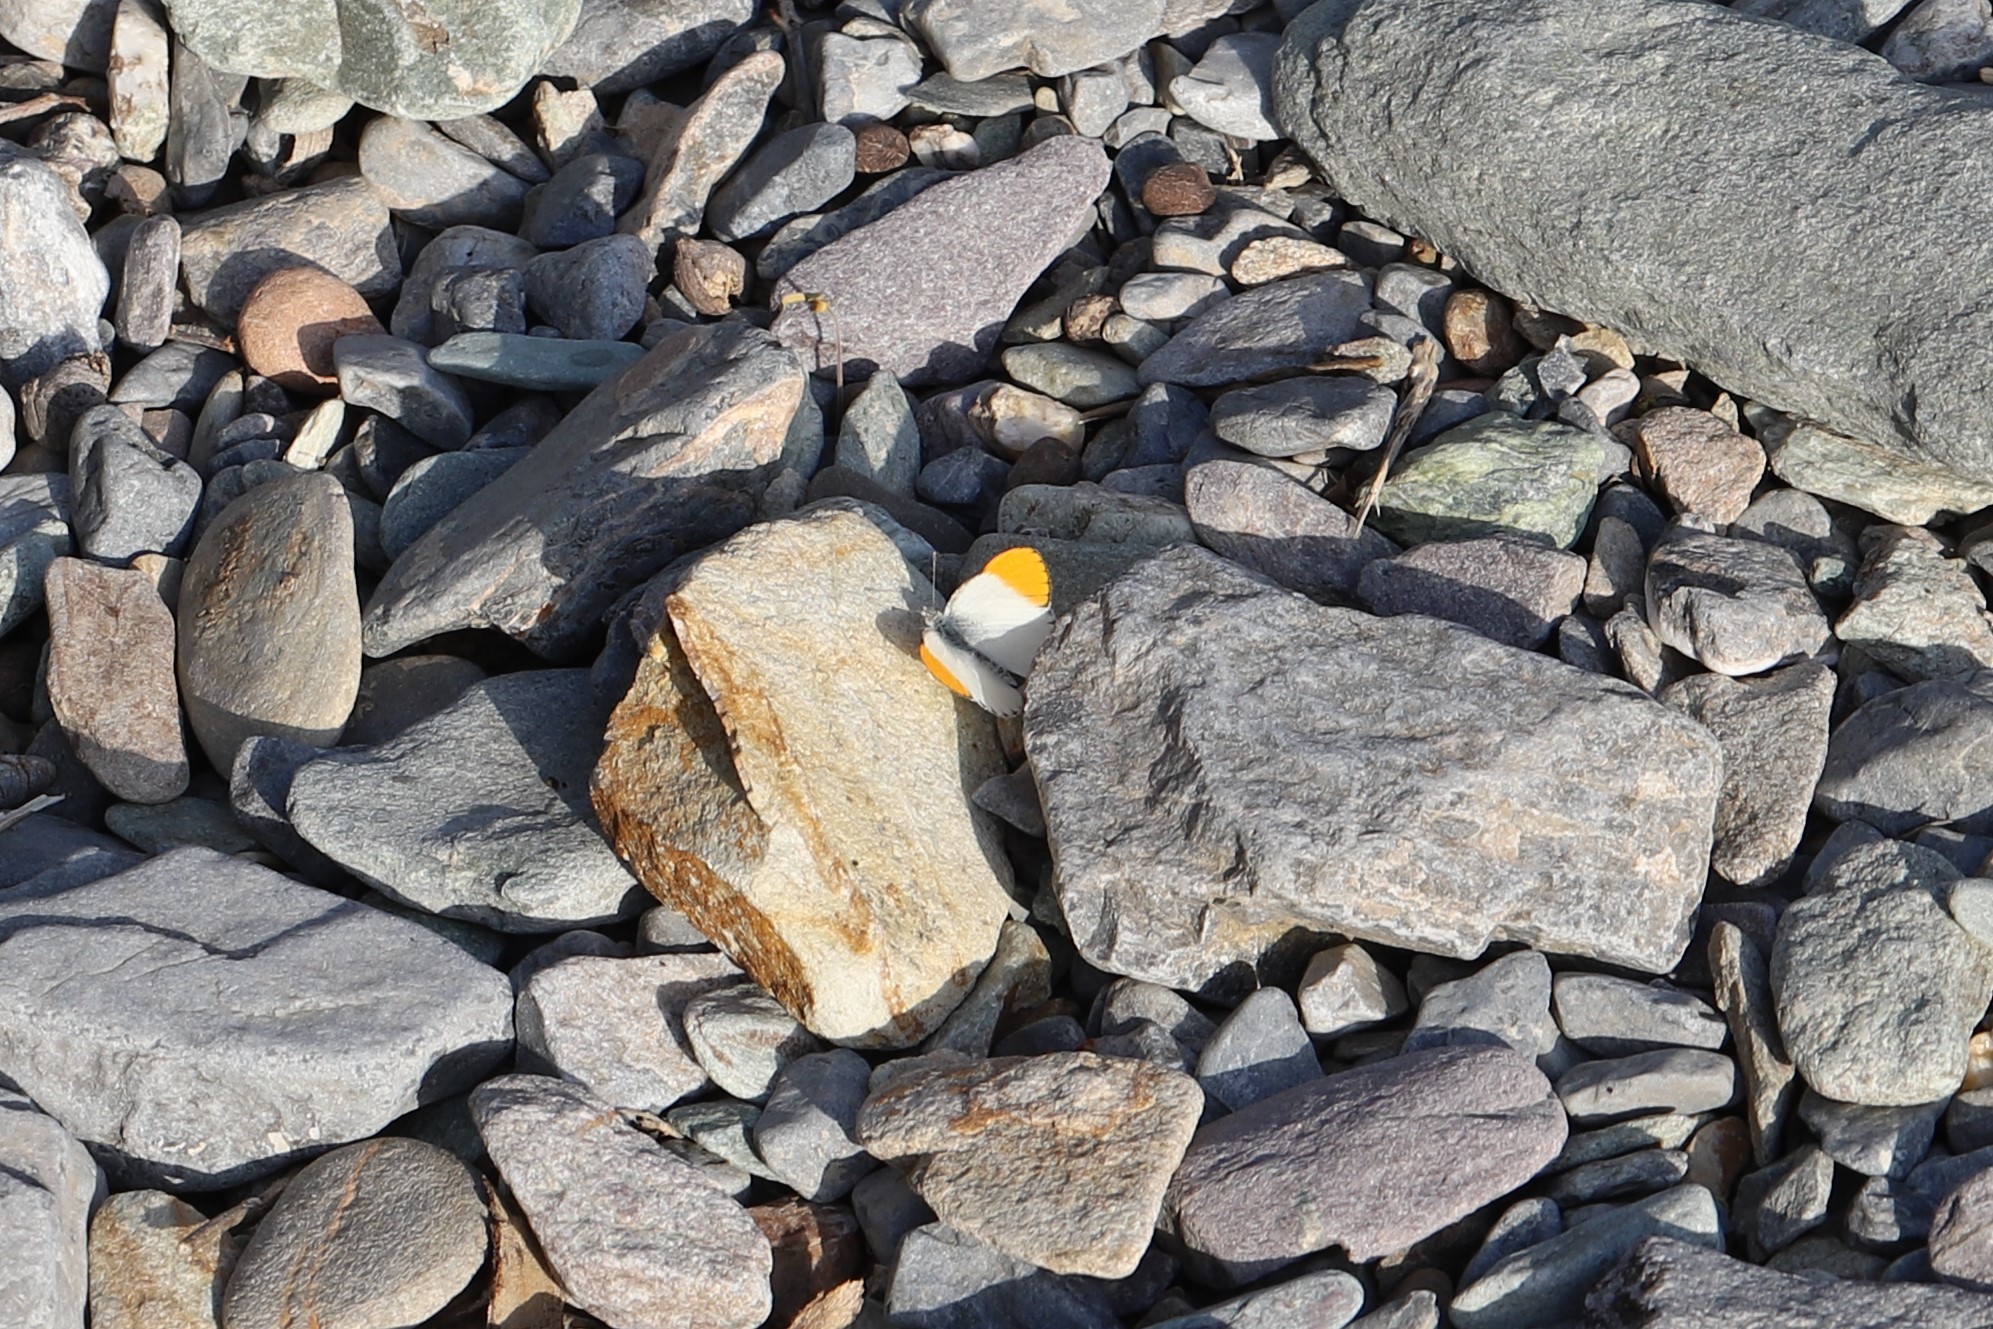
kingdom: Animalia
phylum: Arthropoda
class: Insecta
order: Lepidoptera
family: Pieridae
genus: Colotis
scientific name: Colotis liagore
